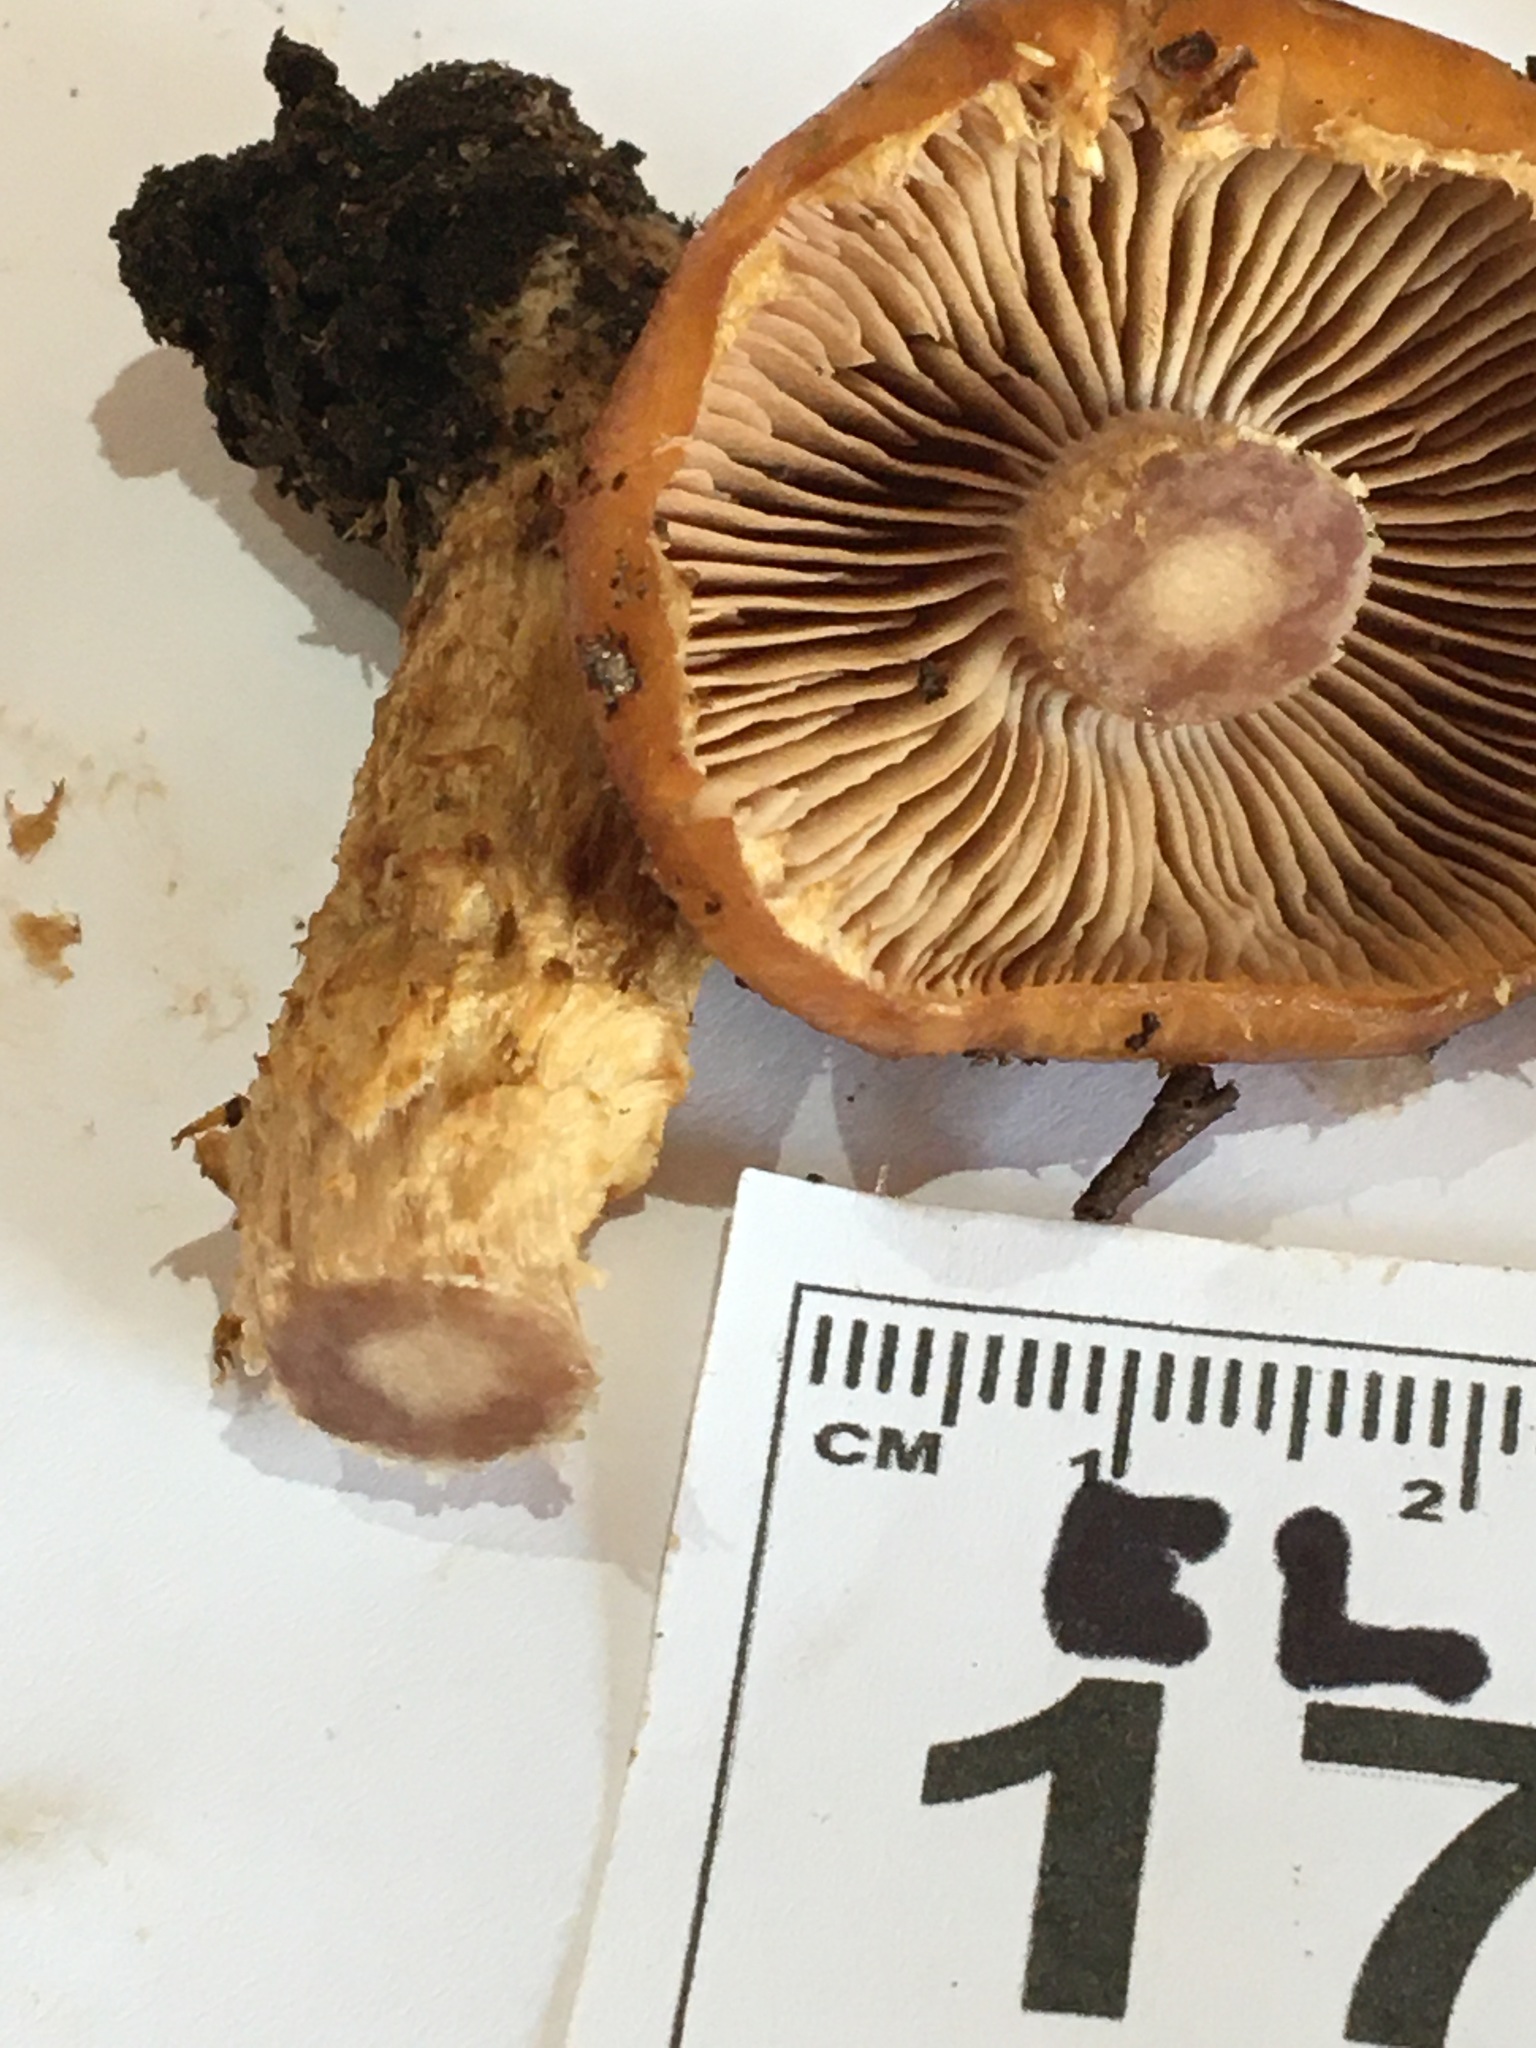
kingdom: Fungi
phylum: Basidiomycota
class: Agaricomycetes
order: Agaricales
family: Cortinariaceae
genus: Cortinarius
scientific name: Cortinarius perfoetens
